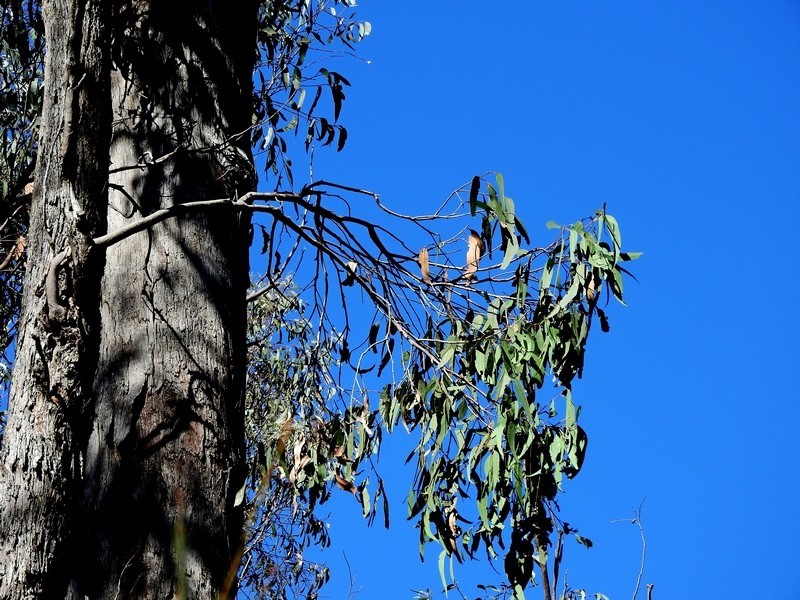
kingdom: Plantae
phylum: Tracheophyta
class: Magnoliopsida
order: Myrtales
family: Myrtaceae
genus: Eucalyptus
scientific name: Eucalyptus longifolia
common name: Woollybutt
